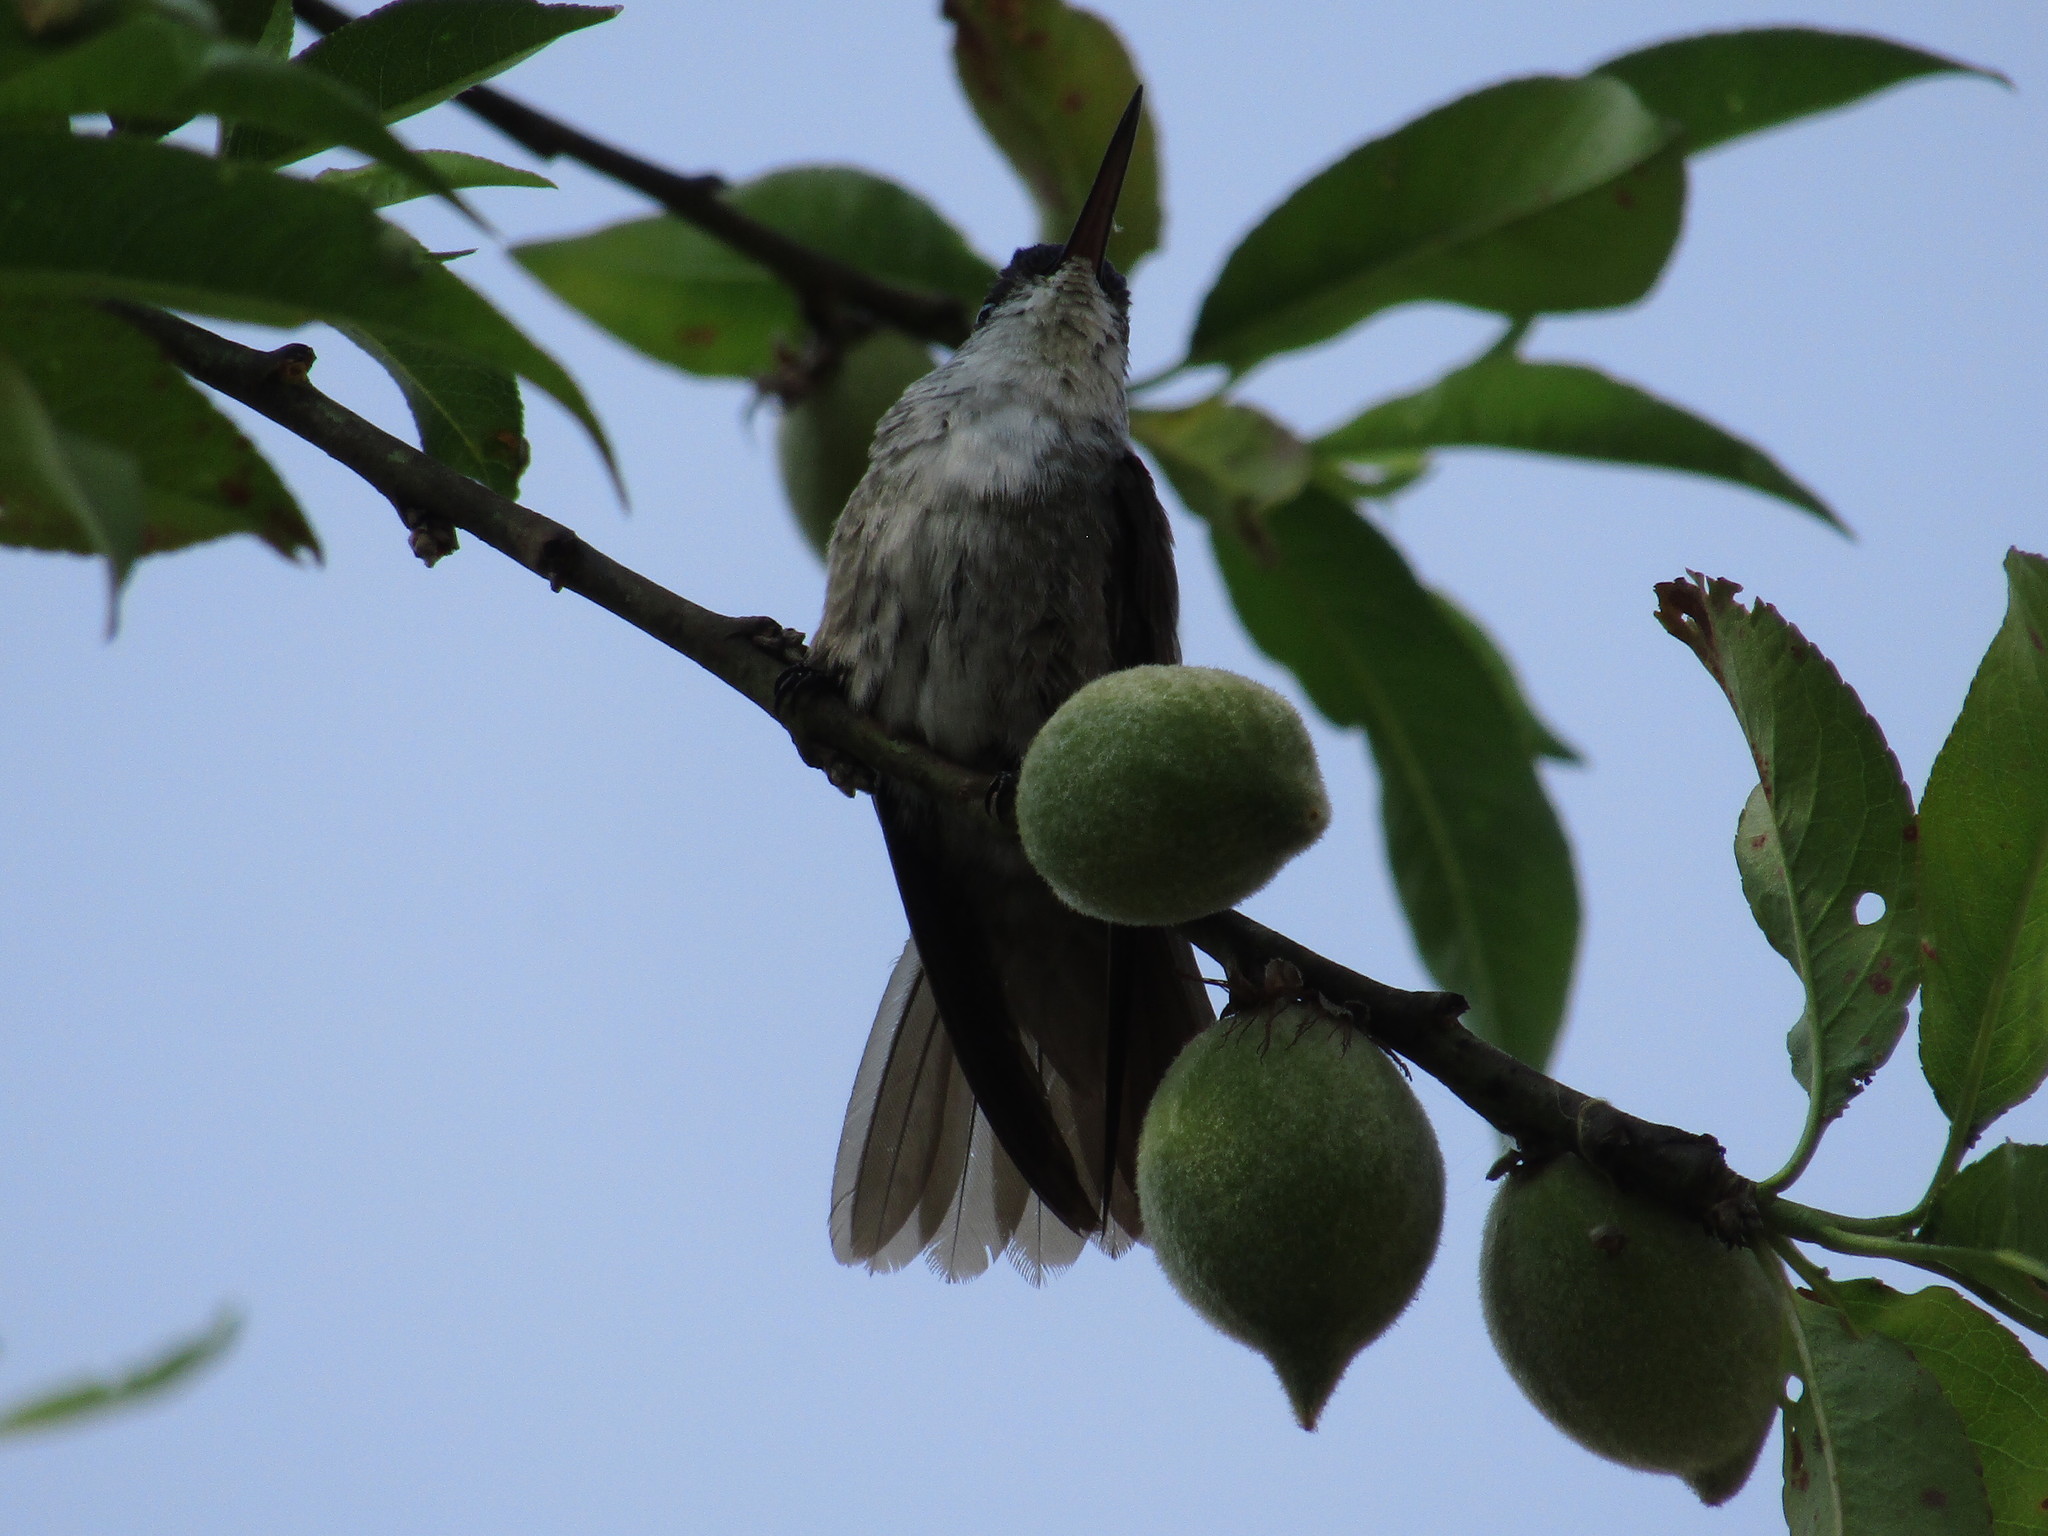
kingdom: Animalia
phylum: Chordata
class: Aves
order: Apodiformes
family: Trochilidae
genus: Saucerottia
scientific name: Saucerottia cyanocephala
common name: Azure-crowned hummingbird
